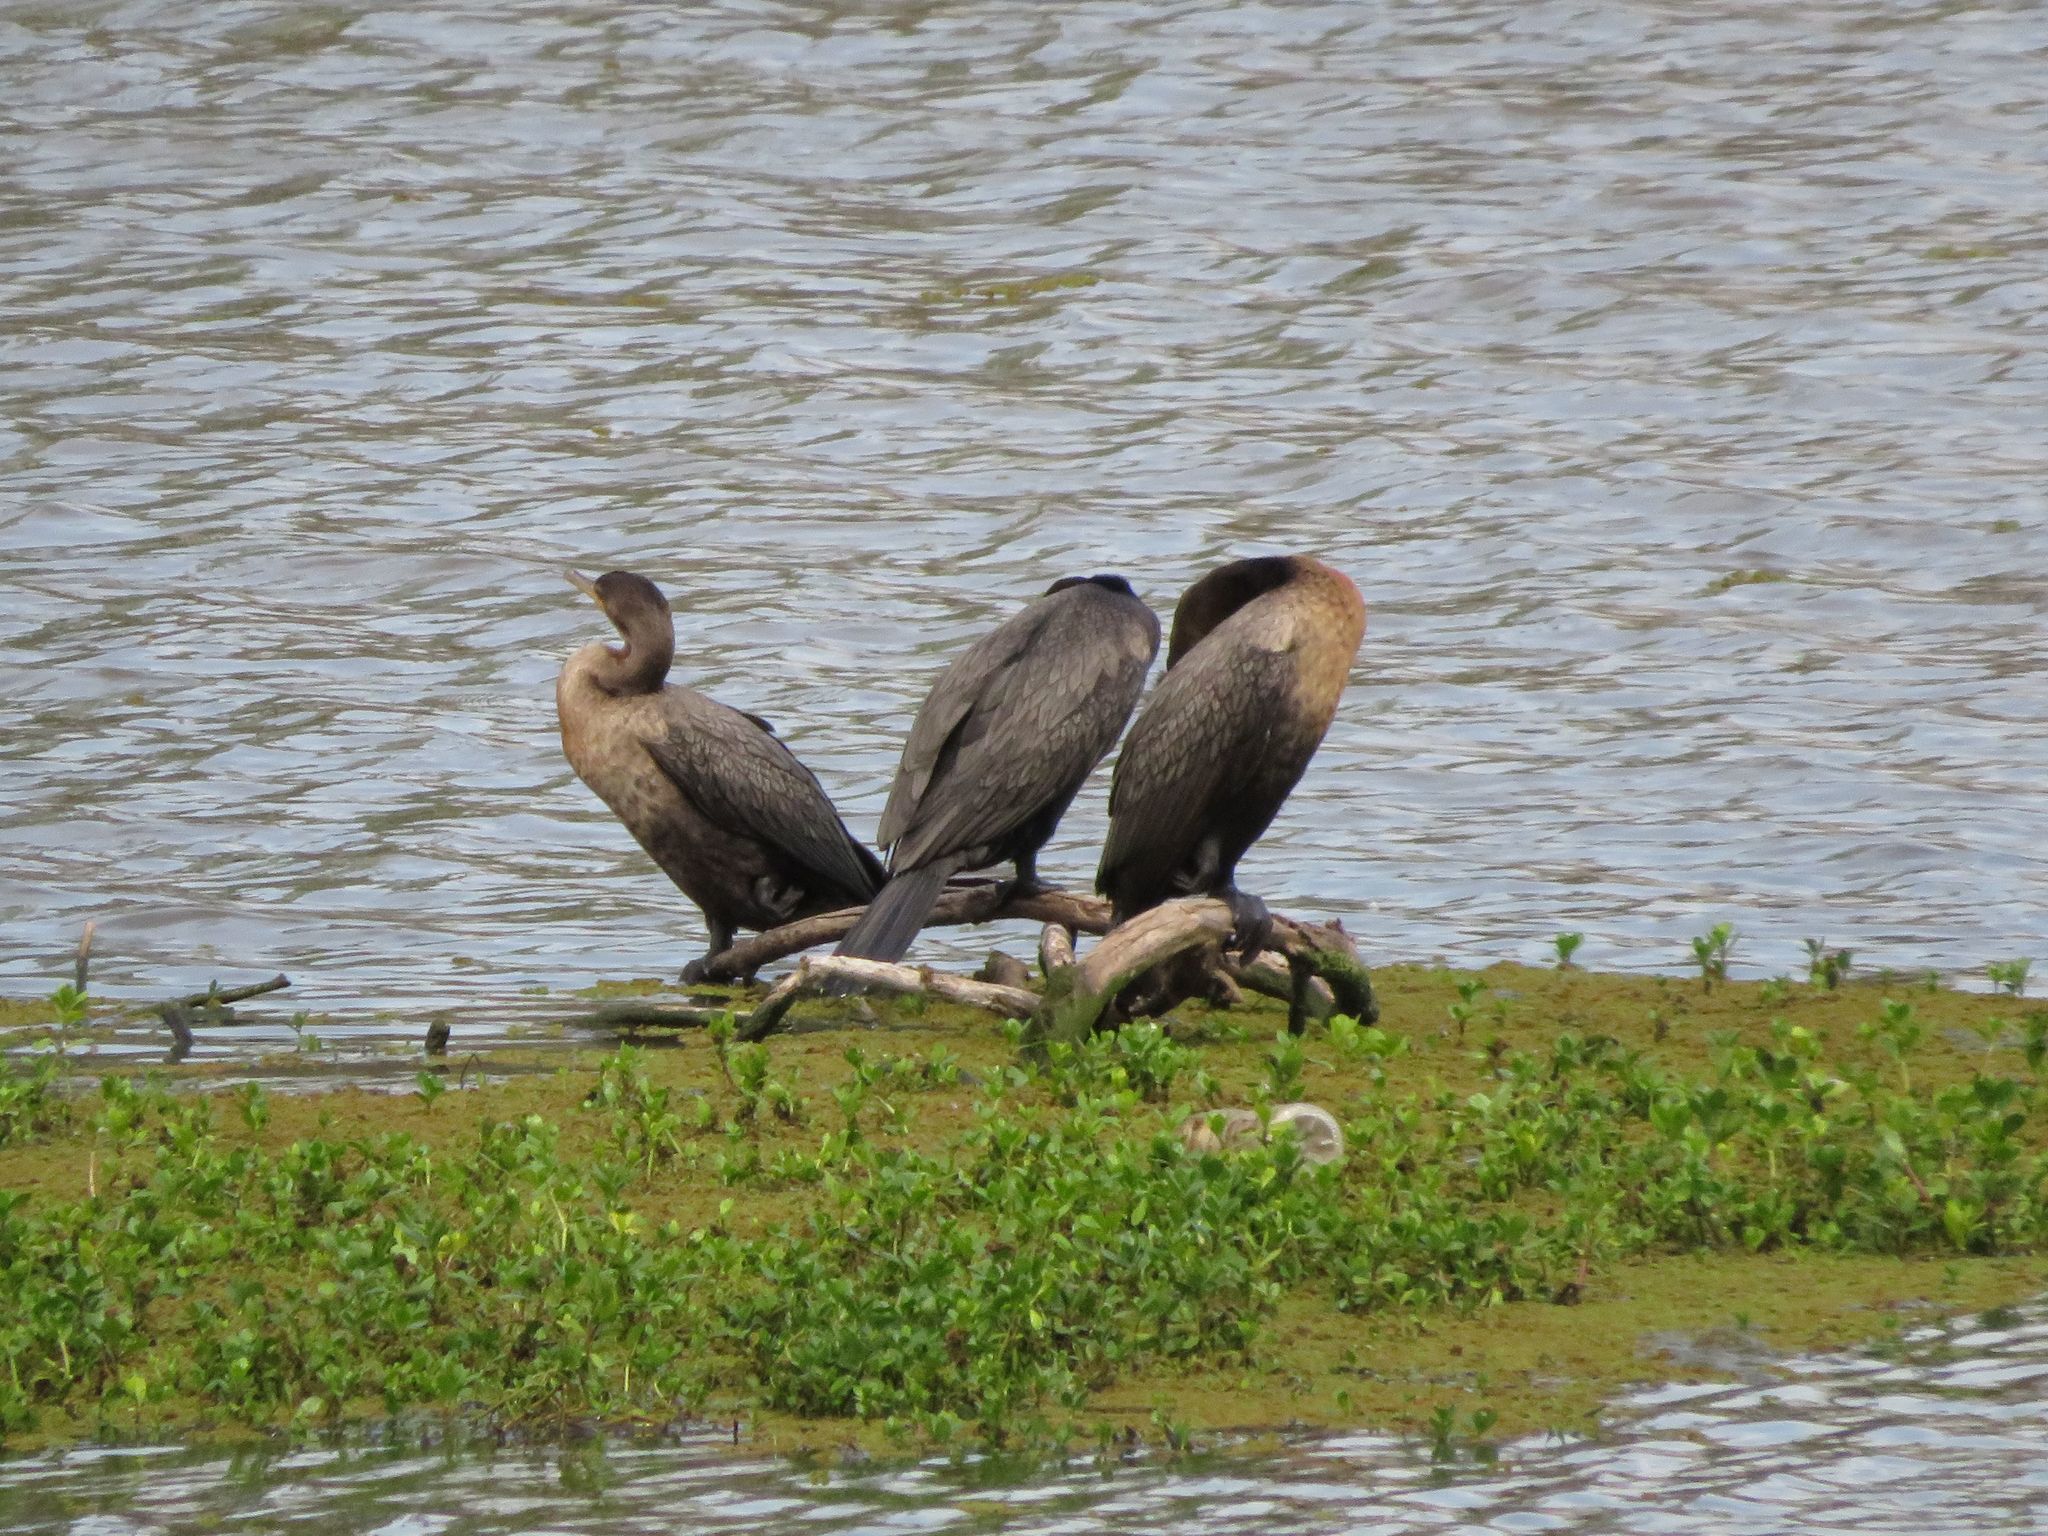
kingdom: Animalia
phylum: Chordata
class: Aves
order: Suliformes
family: Phalacrocoracidae
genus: Phalacrocorax
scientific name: Phalacrocorax brasilianus
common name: Neotropic cormorant
